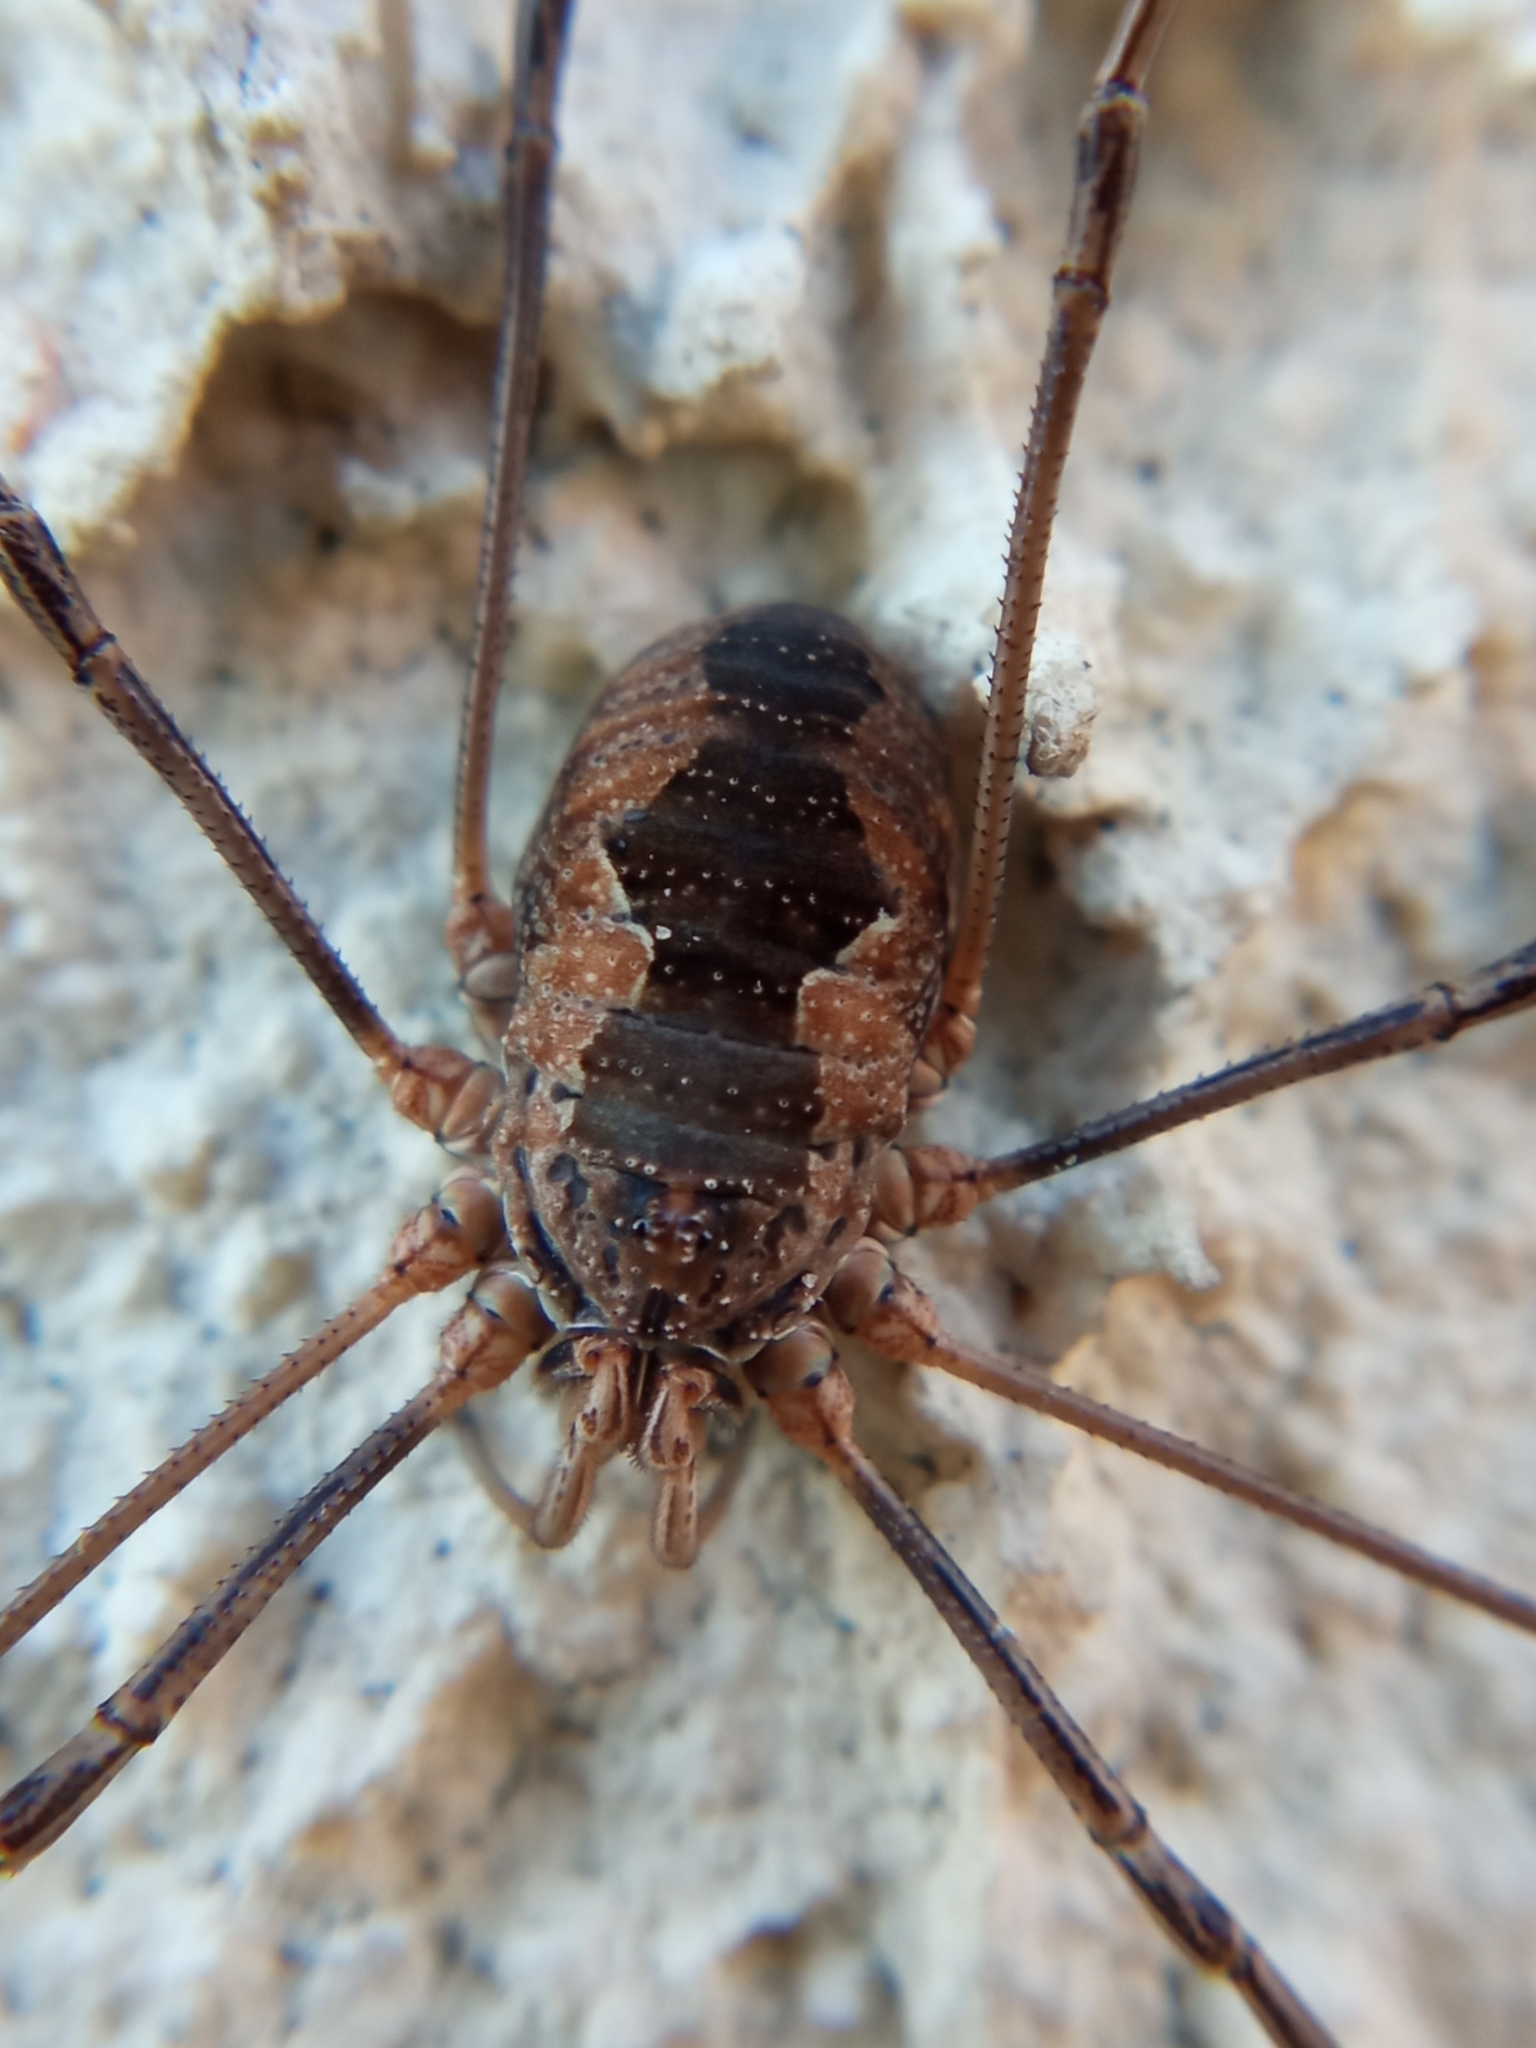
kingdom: Animalia
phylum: Arthropoda
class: Arachnida
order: Opiliones
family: Phalangiidae
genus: Phalangium
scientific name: Phalangium opilio
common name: Daddy longleg
